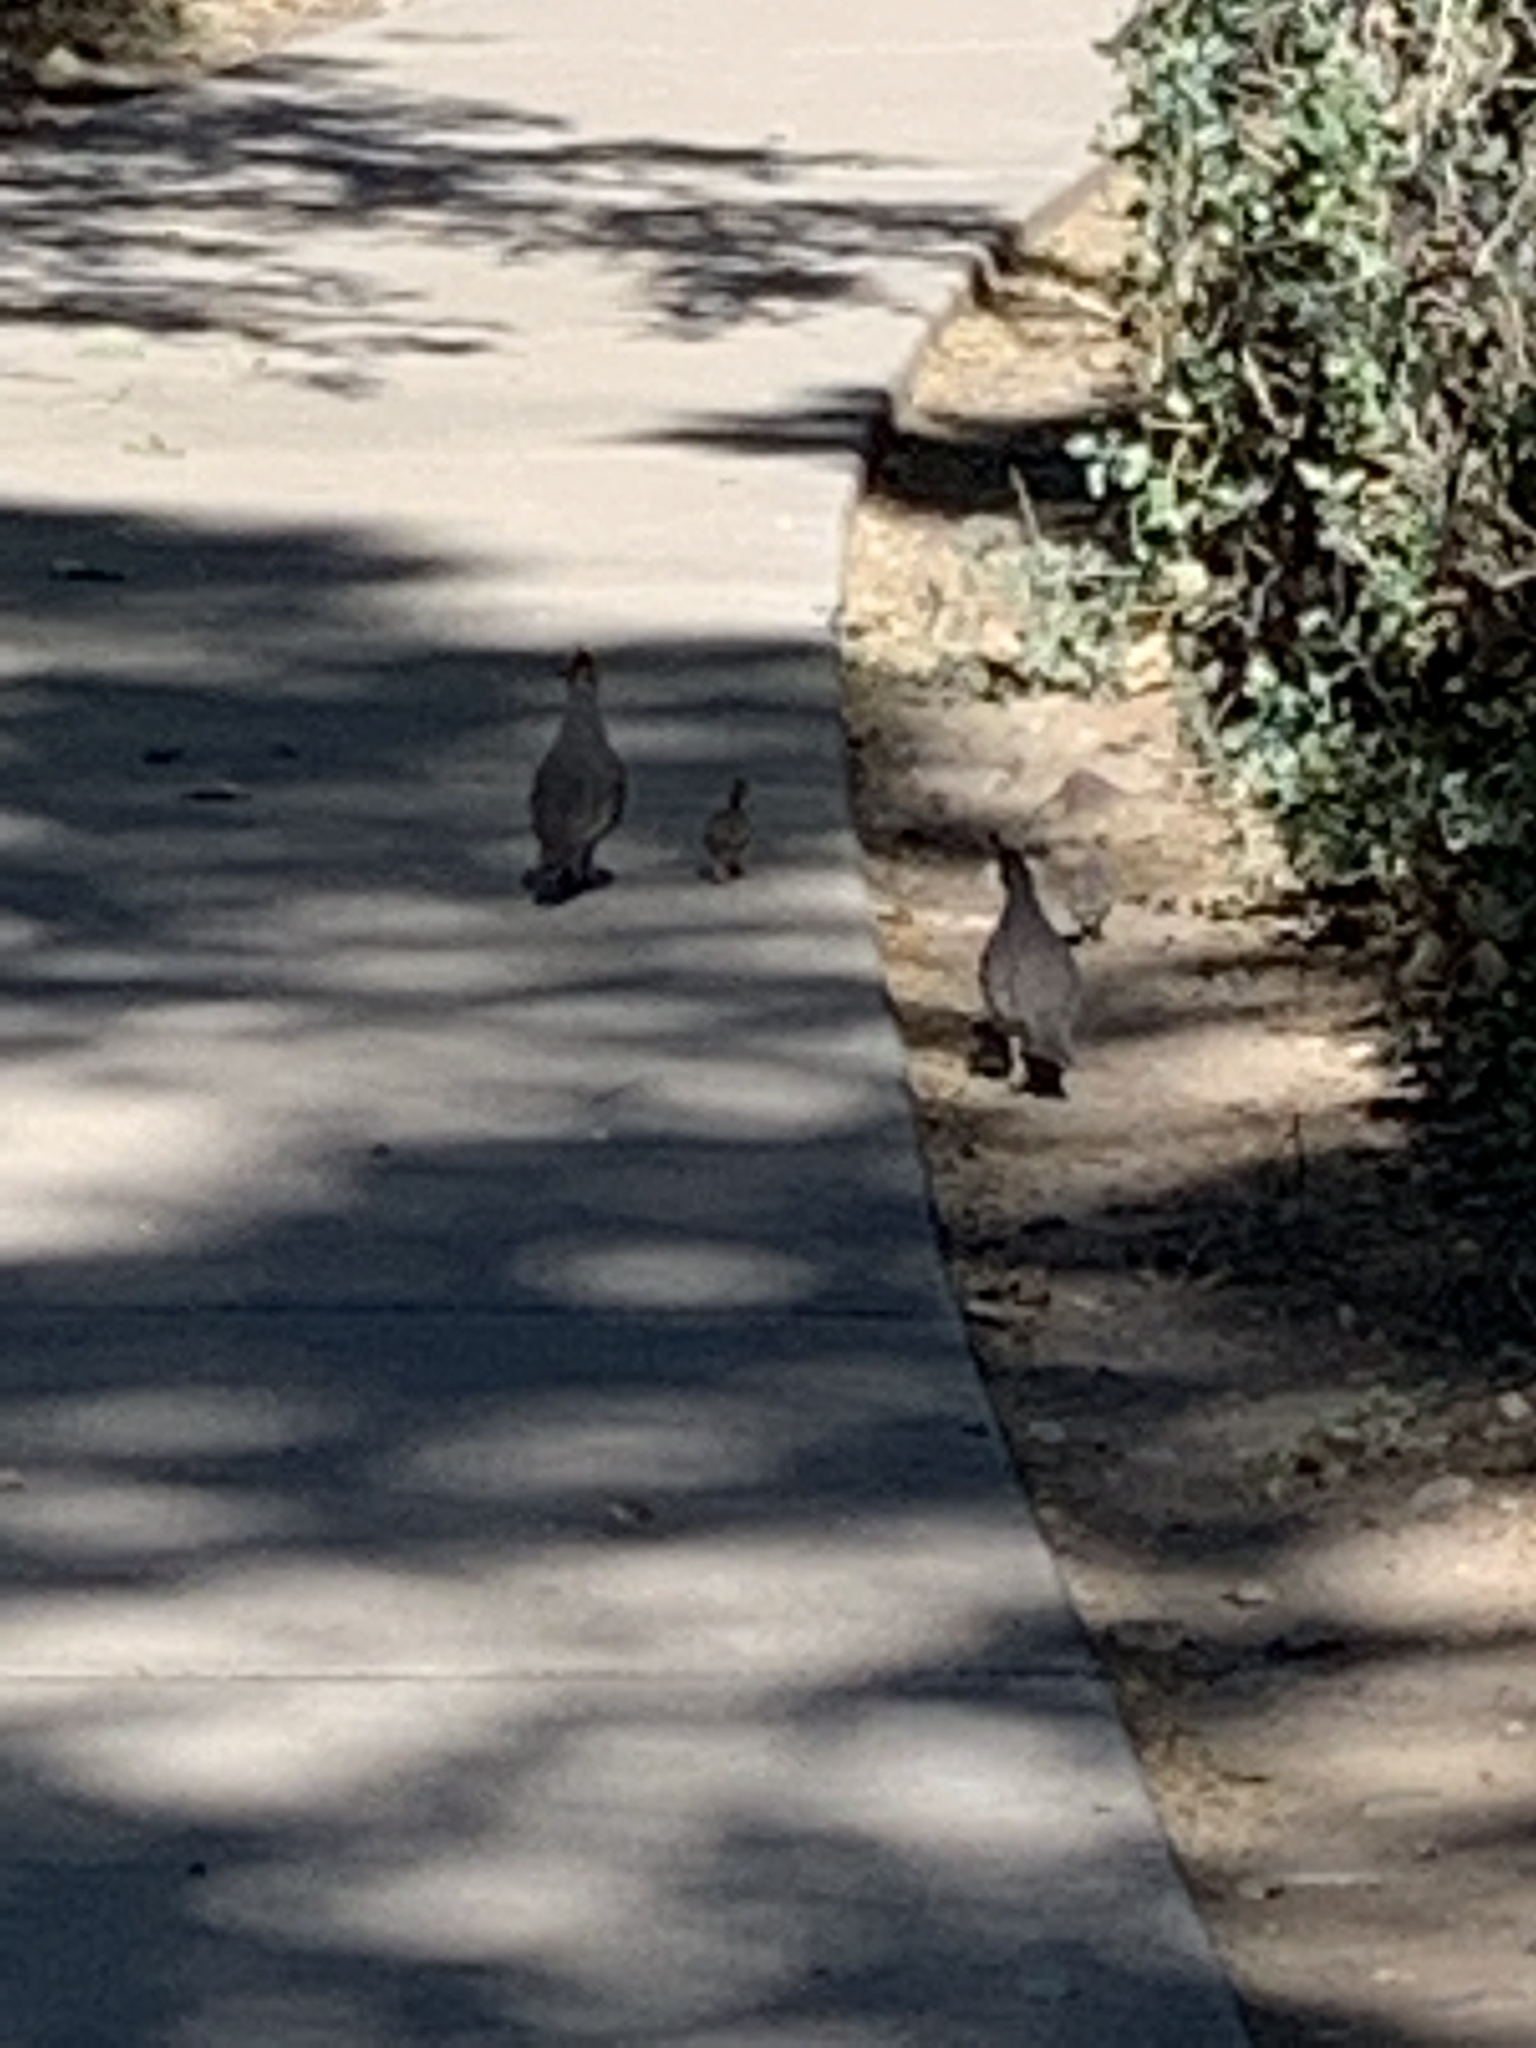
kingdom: Animalia
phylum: Chordata
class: Aves
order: Galliformes
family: Odontophoridae
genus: Callipepla
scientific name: Callipepla gambelii
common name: Gambel's quail
